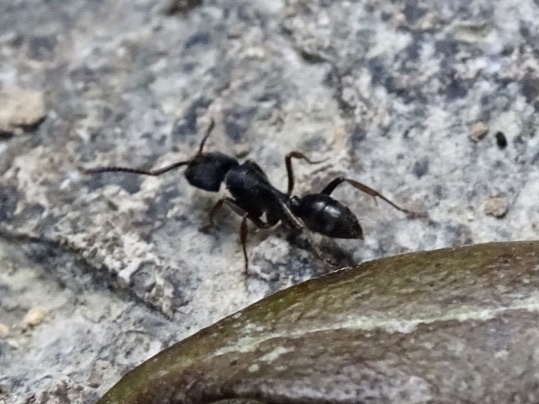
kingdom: Animalia
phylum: Arthropoda
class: Insecta
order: Hymenoptera
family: Formicidae
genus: Odontoponera
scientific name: Odontoponera denticulata
